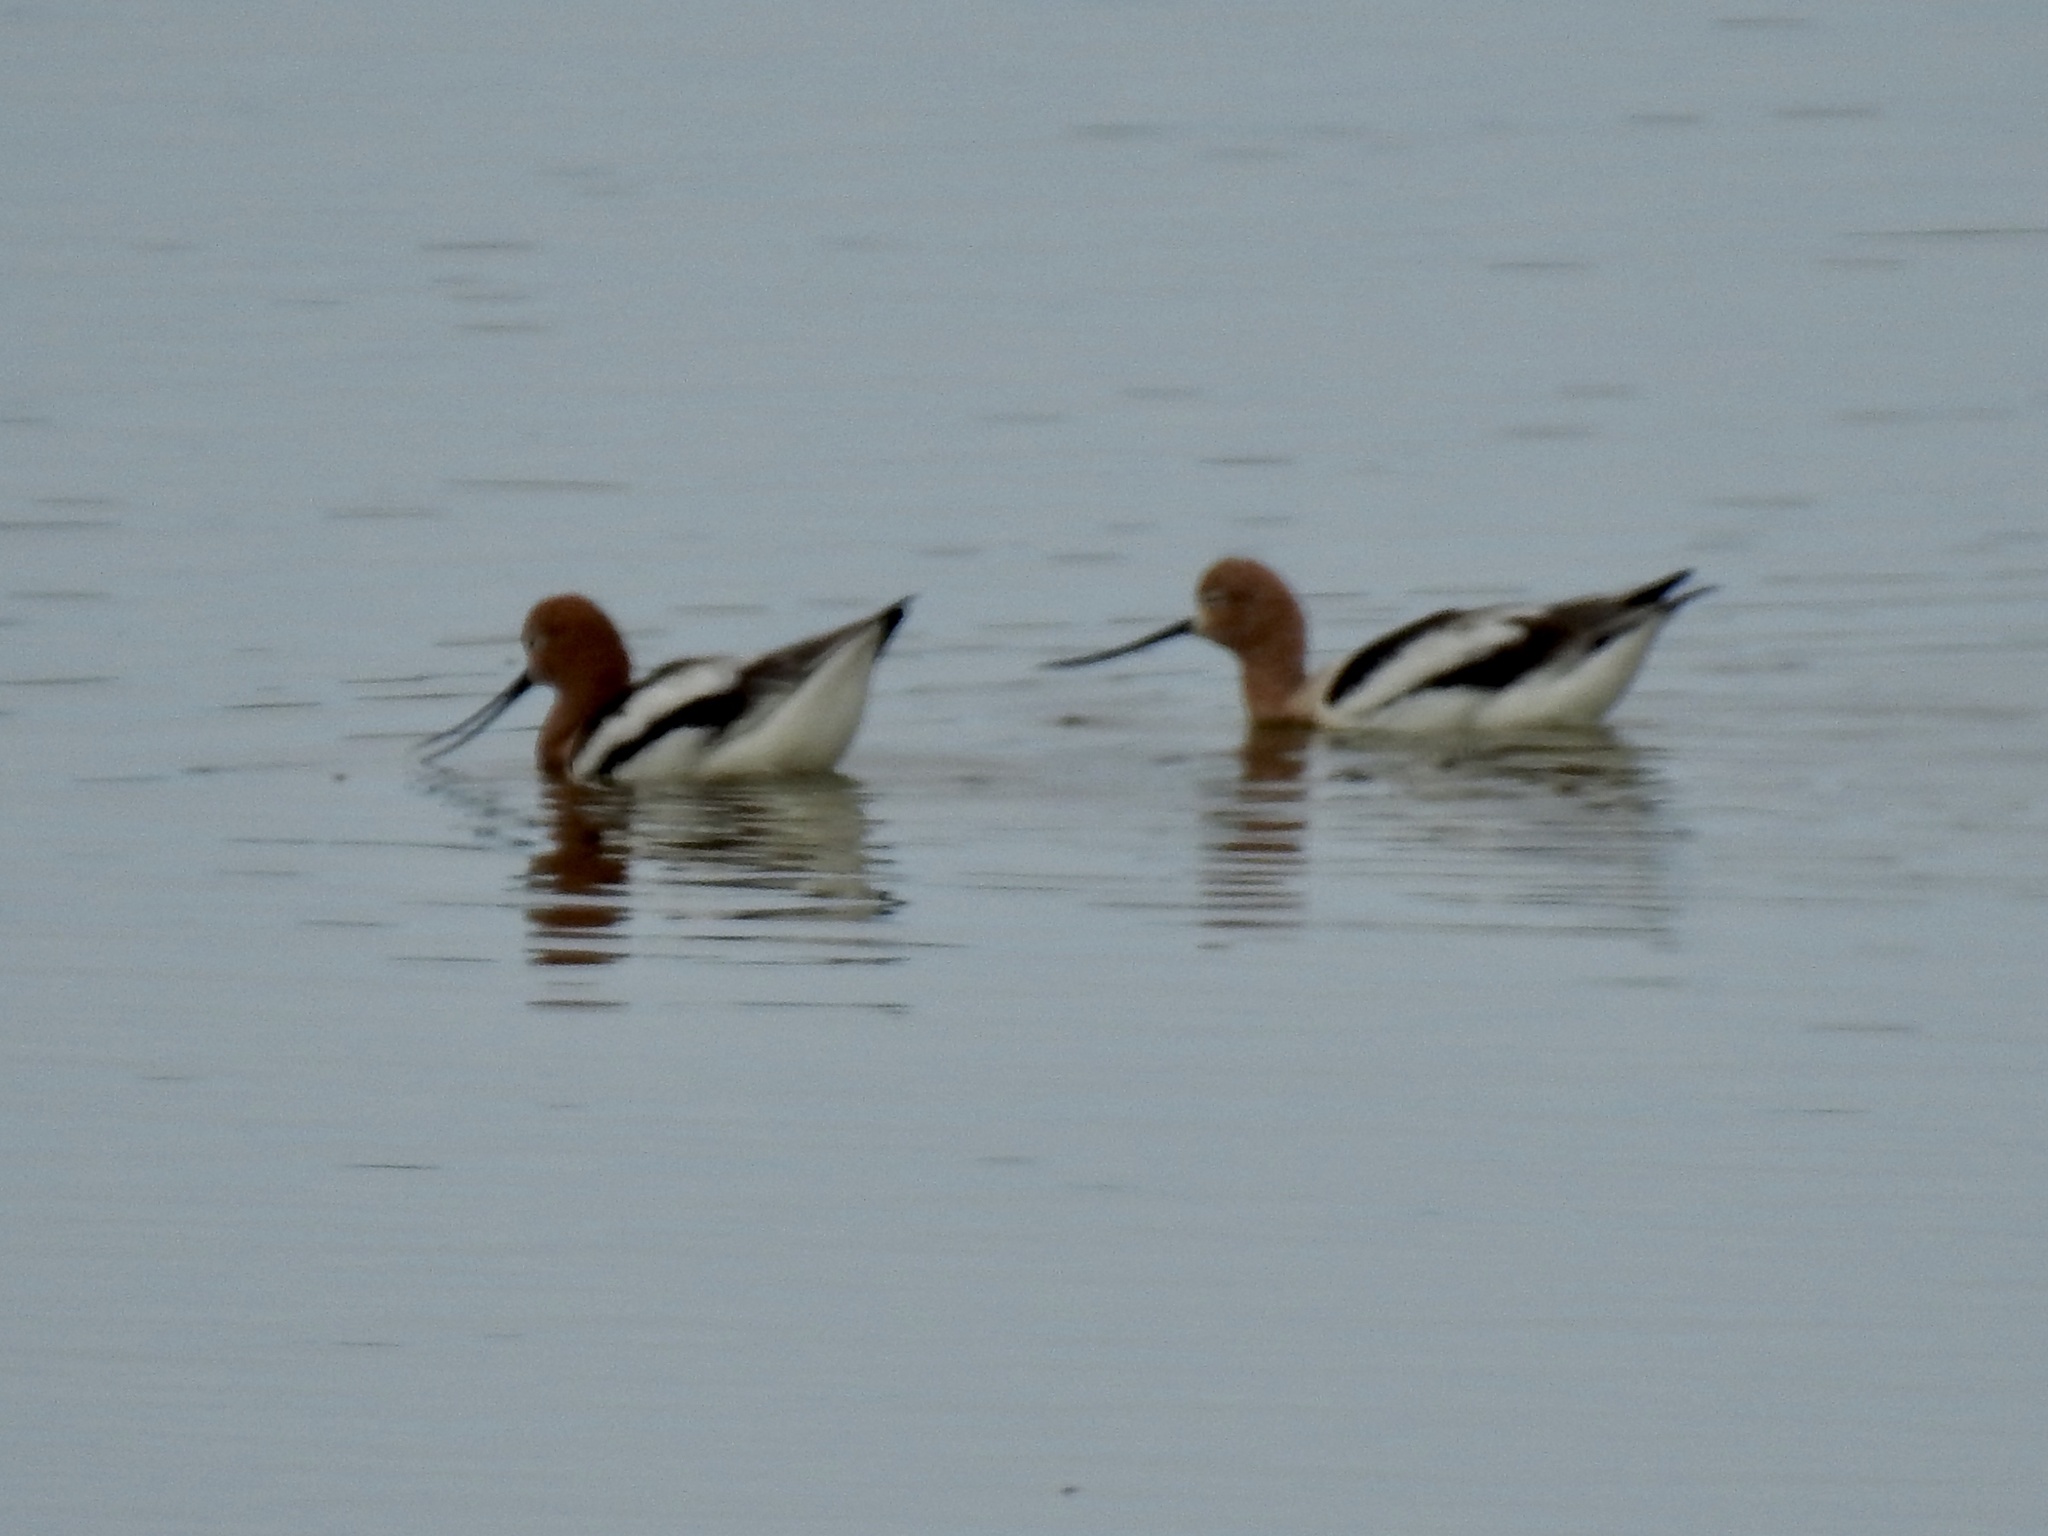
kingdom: Animalia
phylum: Chordata
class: Aves
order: Charadriiformes
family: Recurvirostridae
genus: Recurvirostra
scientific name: Recurvirostra americana
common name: American avocet
